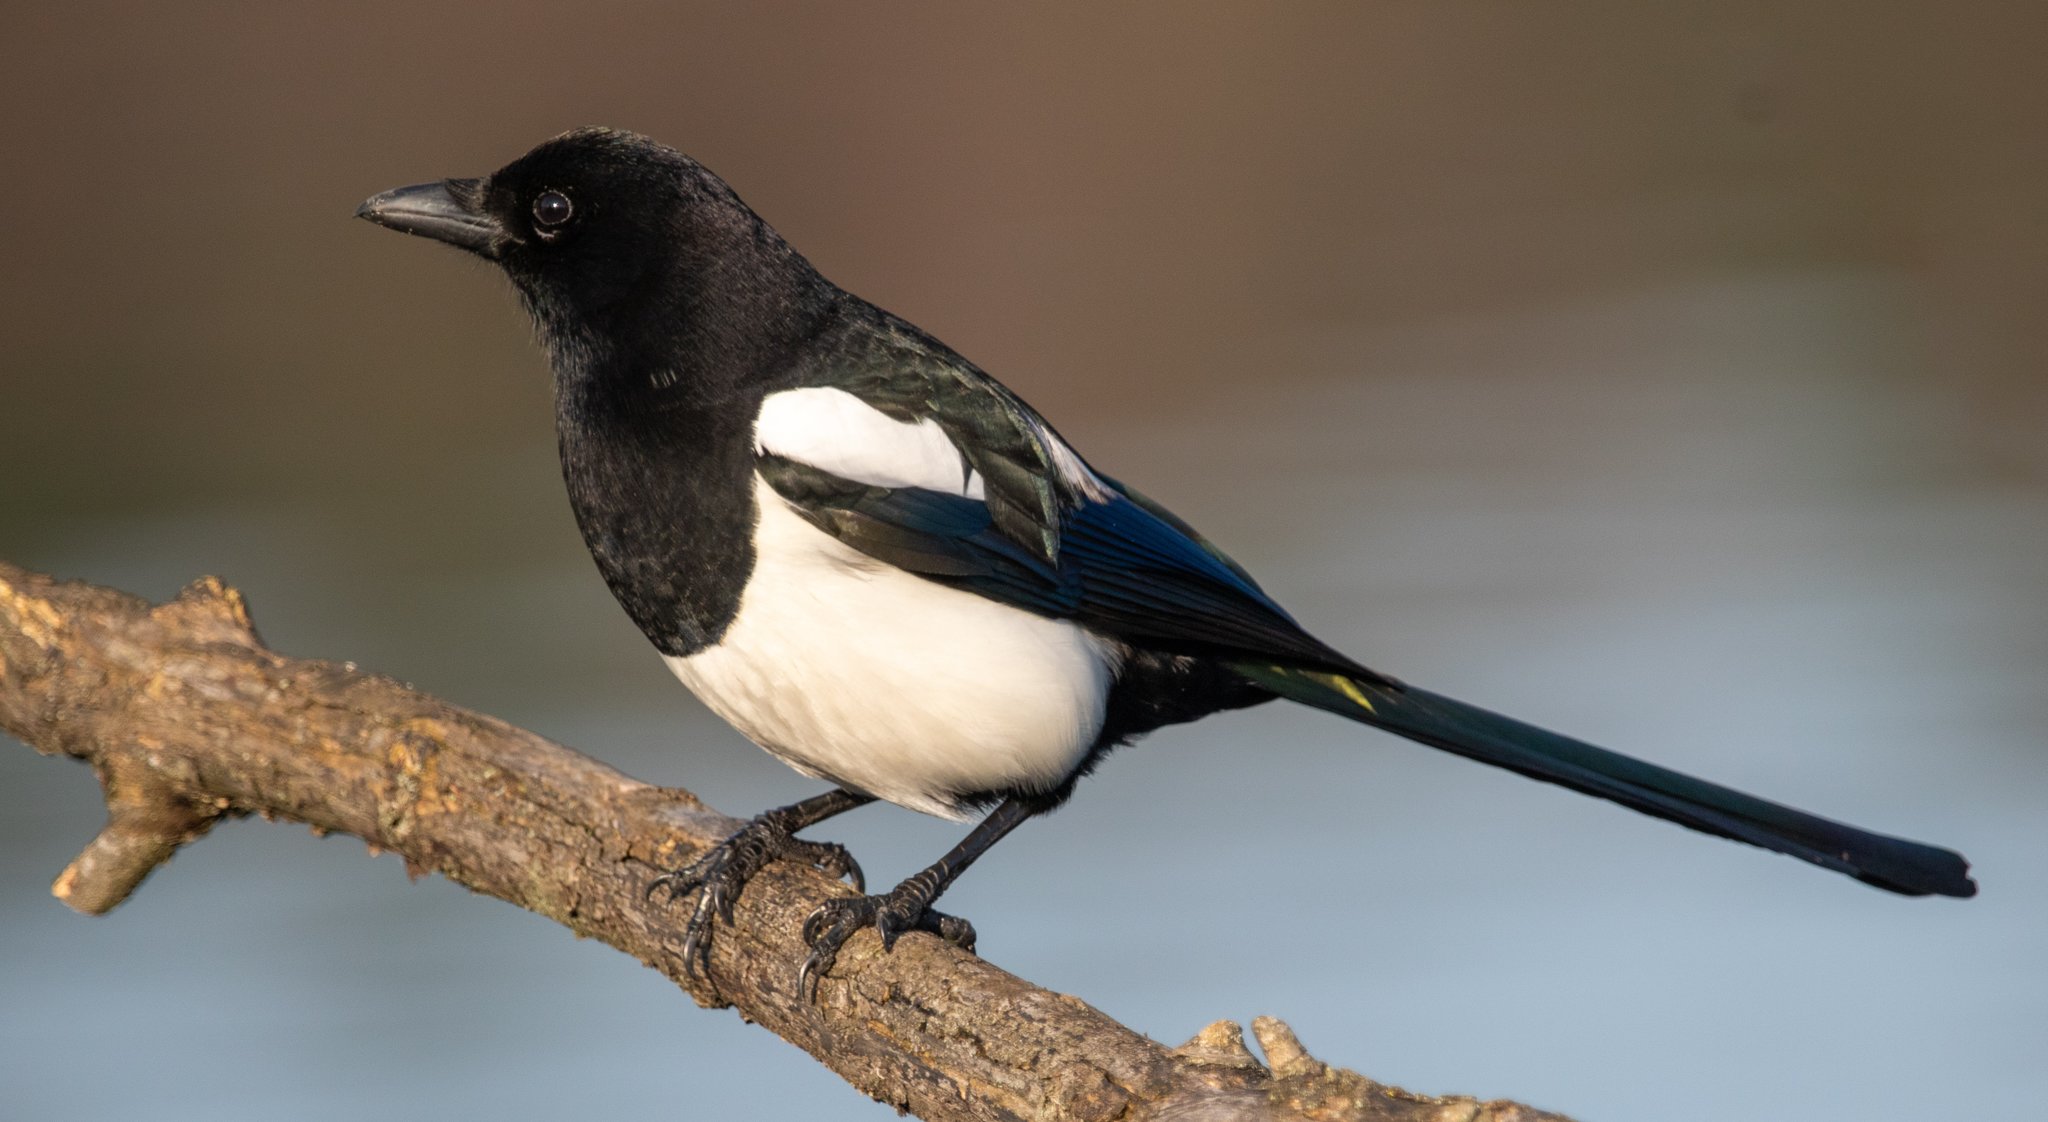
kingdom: Animalia
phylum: Chordata
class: Aves
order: Passeriformes
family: Corvidae
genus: Pica
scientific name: Pica pica
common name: Eurasian magpie
